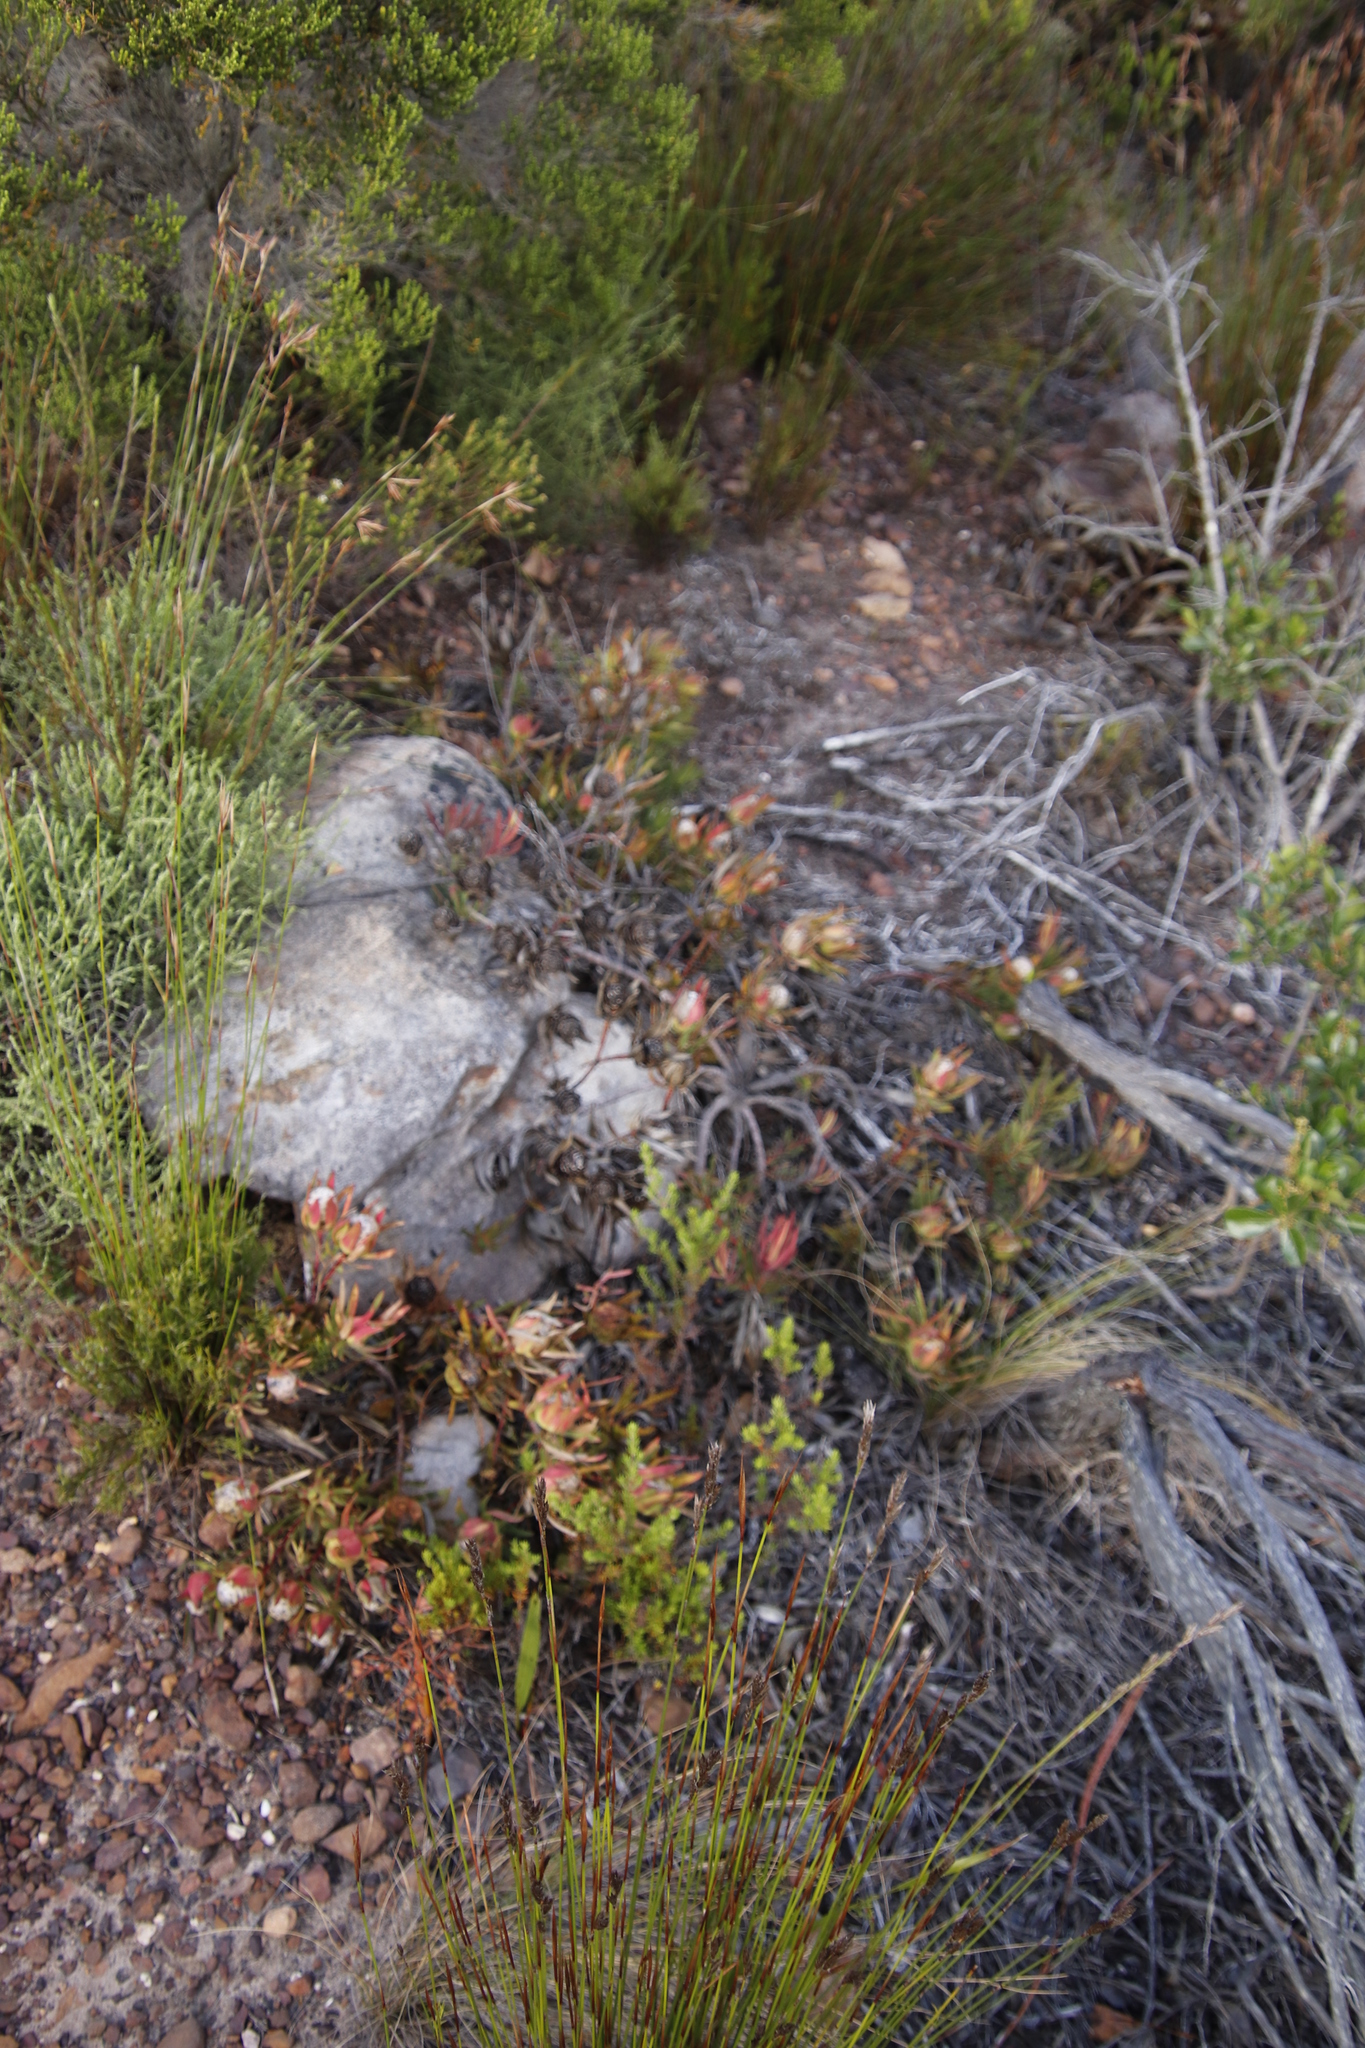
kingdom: Plantae
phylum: Tracheophyta
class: Magnoliopsida
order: Proteales
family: Proteaceae
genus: Leucadendron
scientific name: Leucadendron salignum
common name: Common sunshine conebush
